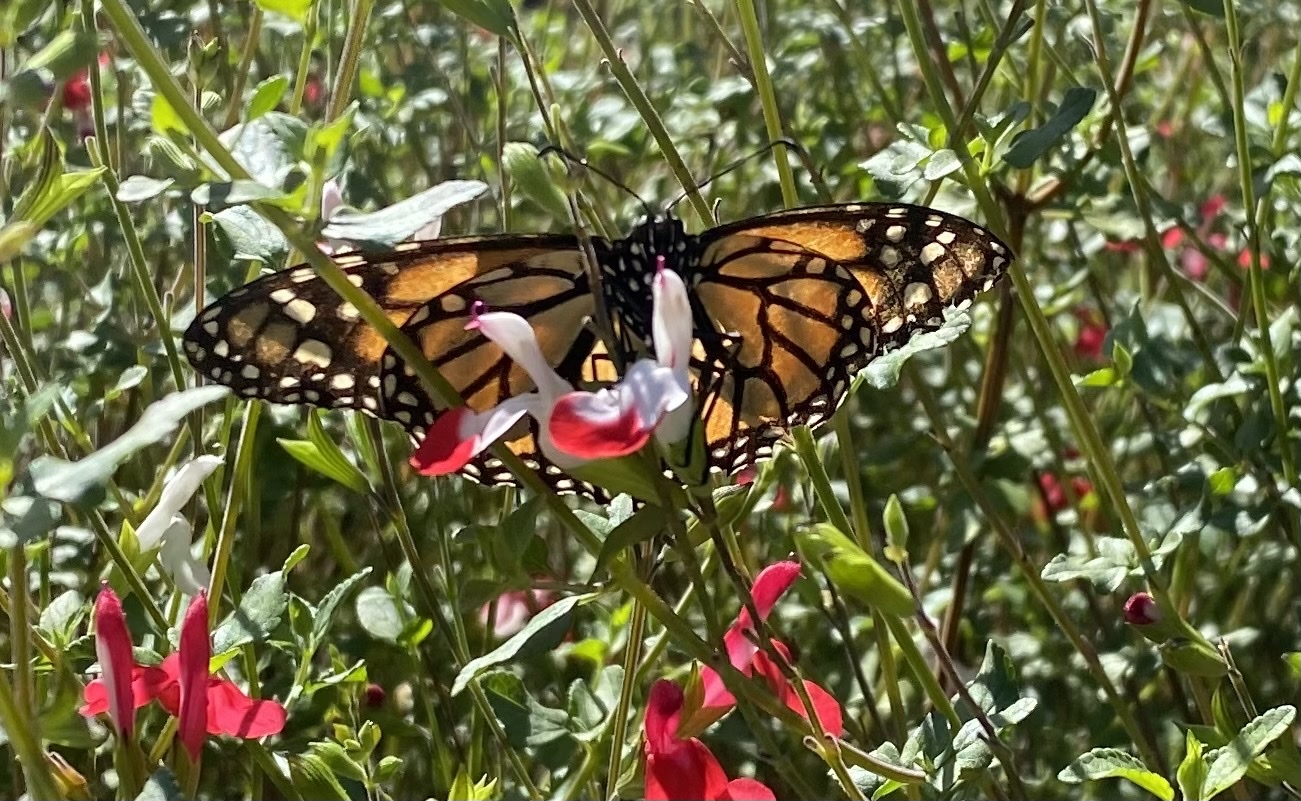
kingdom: Animalia
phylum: Arthropoda
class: Insecta
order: Lepidoptera
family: Nymphalidae
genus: Danaus
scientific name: Danaus plexippus
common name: Monarch
